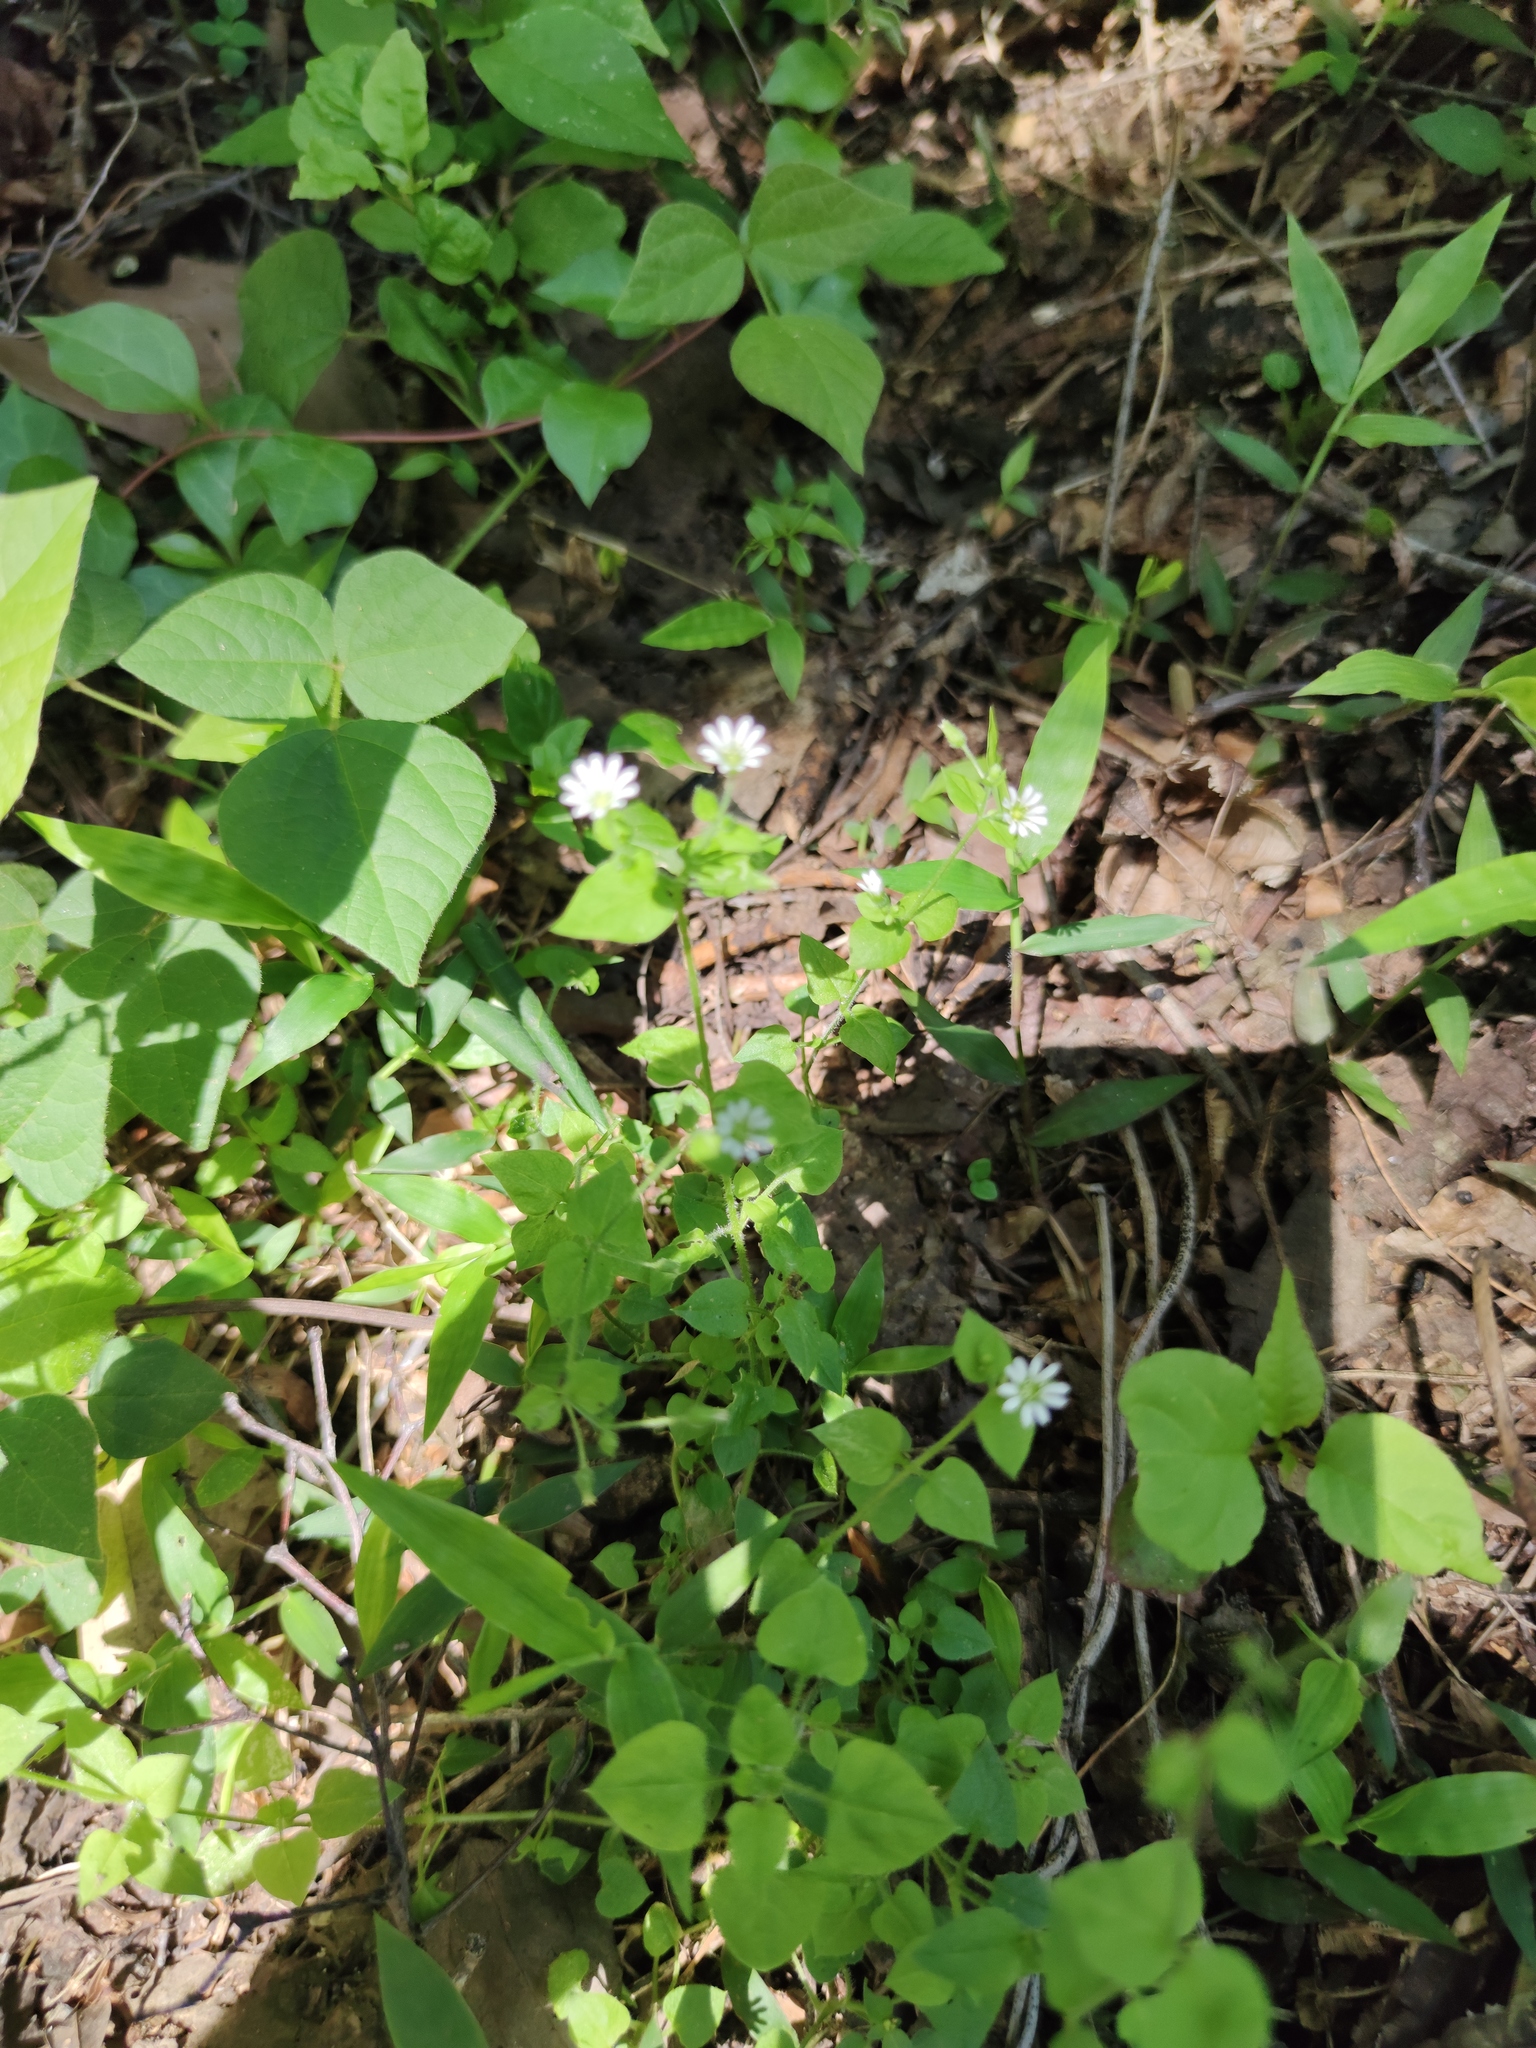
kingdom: Plantae
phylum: Tracheophyta
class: Magnoliopsida
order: Caryophyllales
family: Caryophyllaceae
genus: Stellaria
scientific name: Stellaria cuspidata
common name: Mexican chickweed
